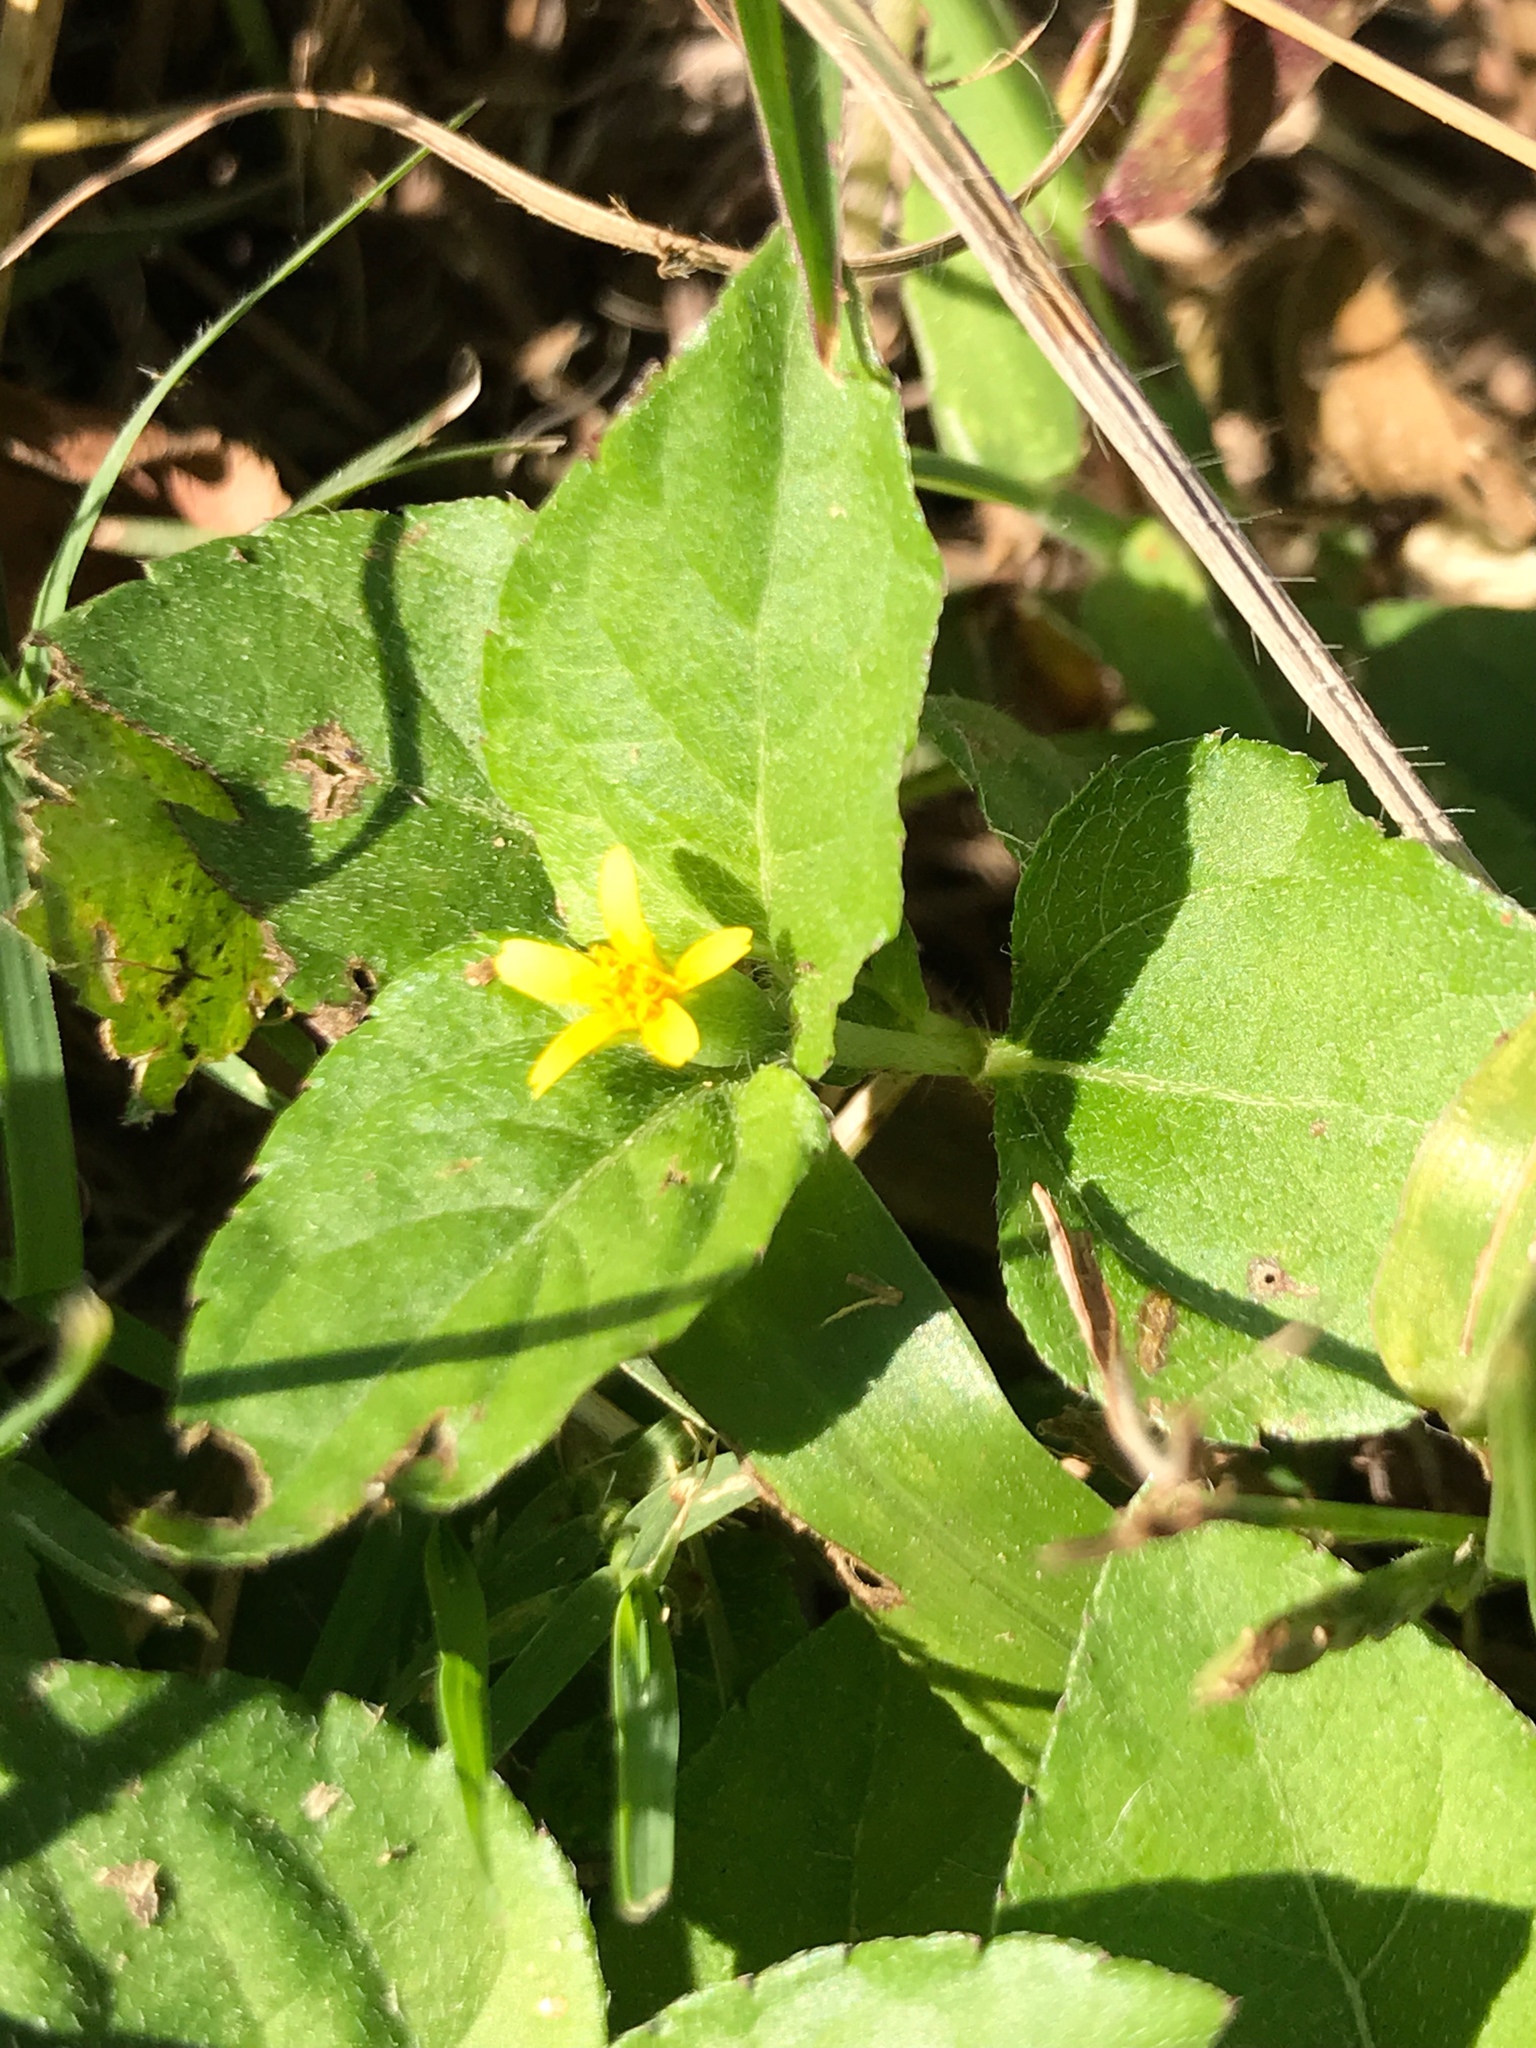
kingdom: Plantae
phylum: Tracheophyta
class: Magnoliopsida
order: Asterales
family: Asteraceae
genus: Calyptocarpus
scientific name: Calyptocarpus vialis
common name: Straggler daisy
